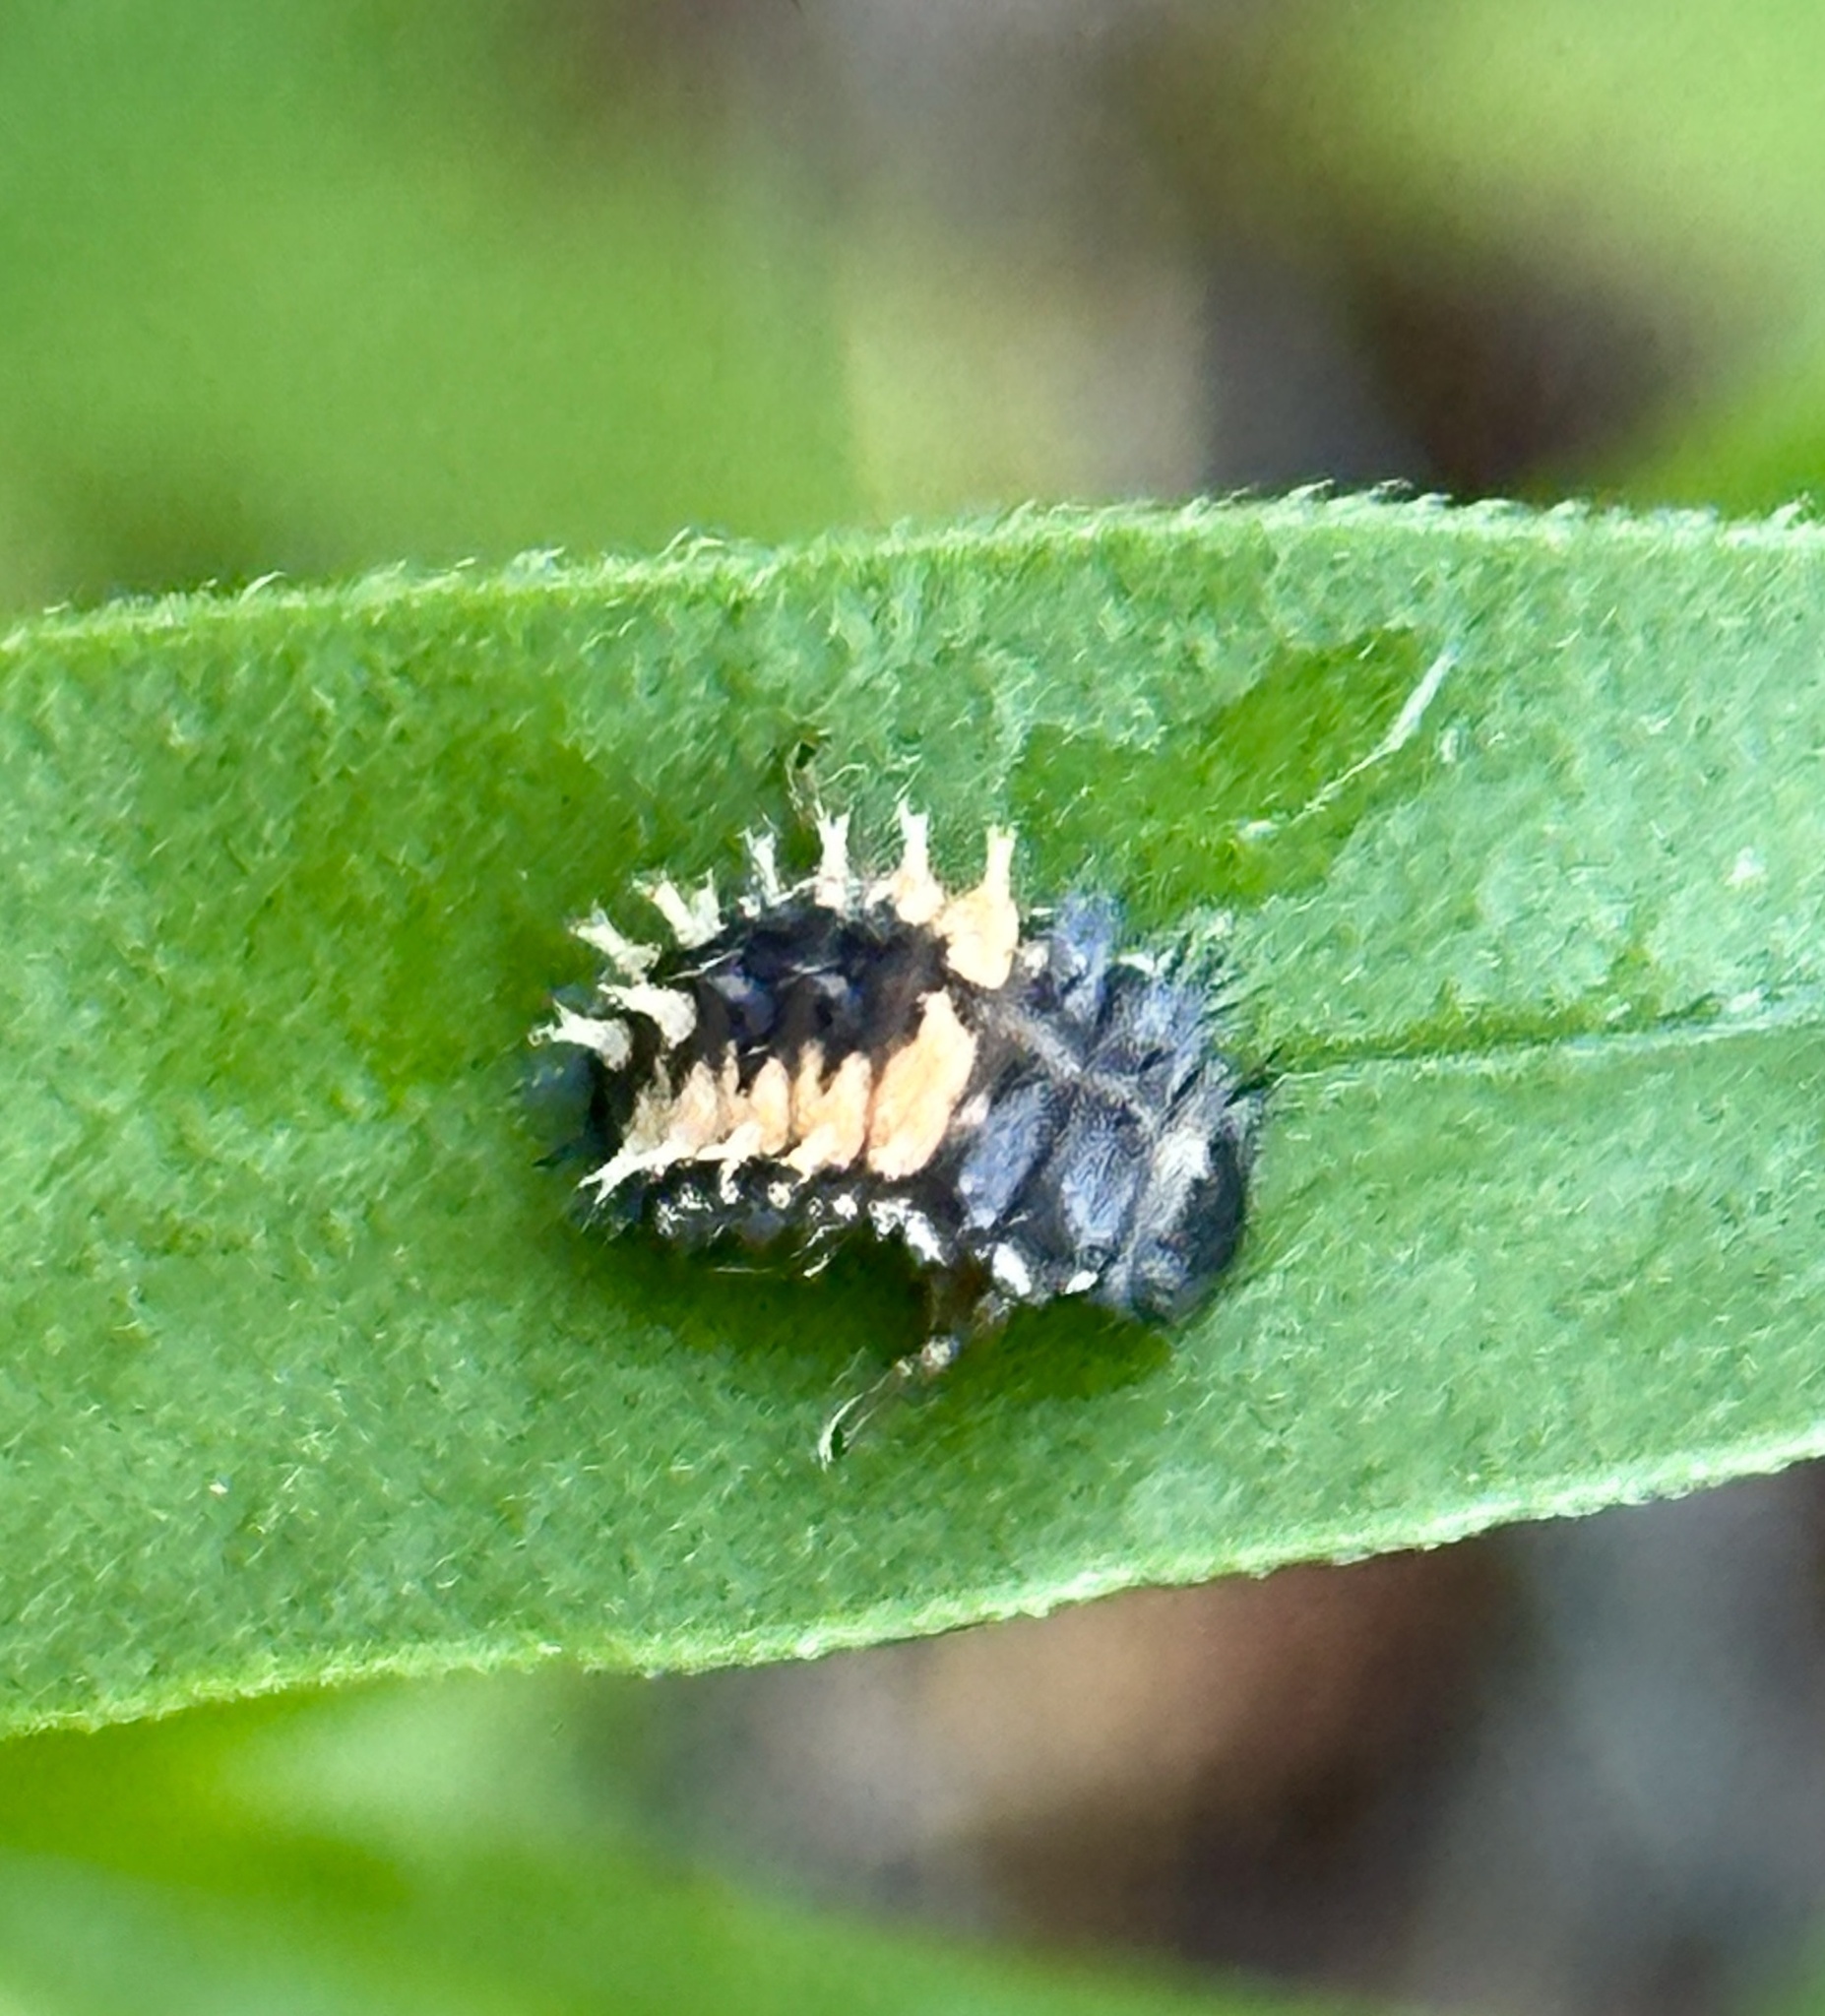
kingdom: Animalia
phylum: Arthropoda
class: Insecta
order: Coleoptera
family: Coccinellidae
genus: Harmonia
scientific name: Harmonia axyridis
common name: Harlequin ladybird
